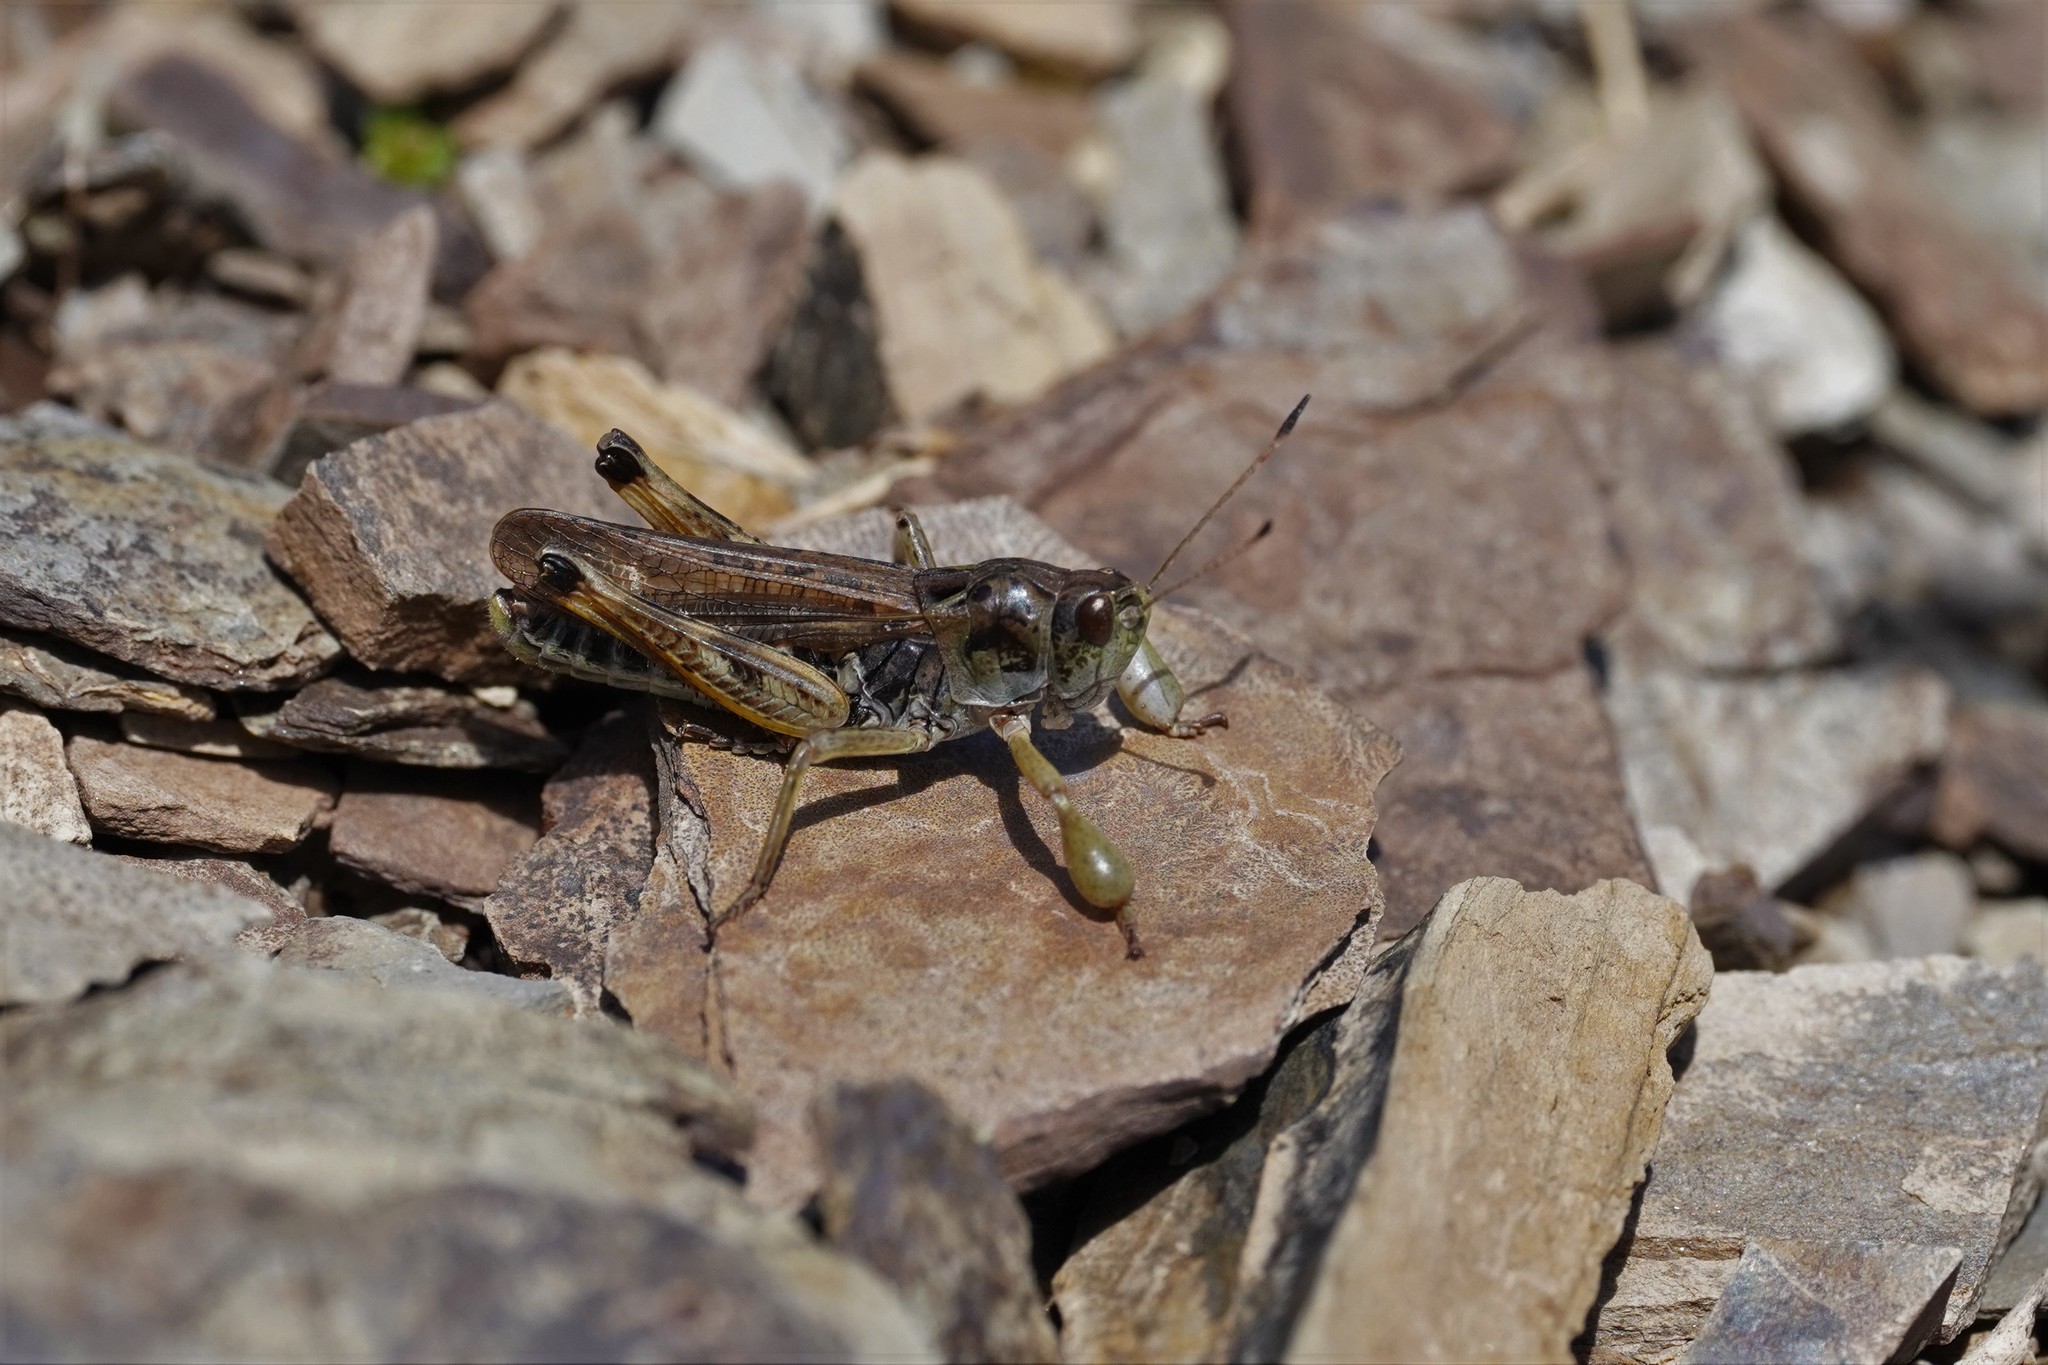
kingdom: Animalia
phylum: Arthropoda
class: Insecta
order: Orthoptera
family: Acrididae
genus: Gomphocerus
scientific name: Gomphocerus sibiricus
